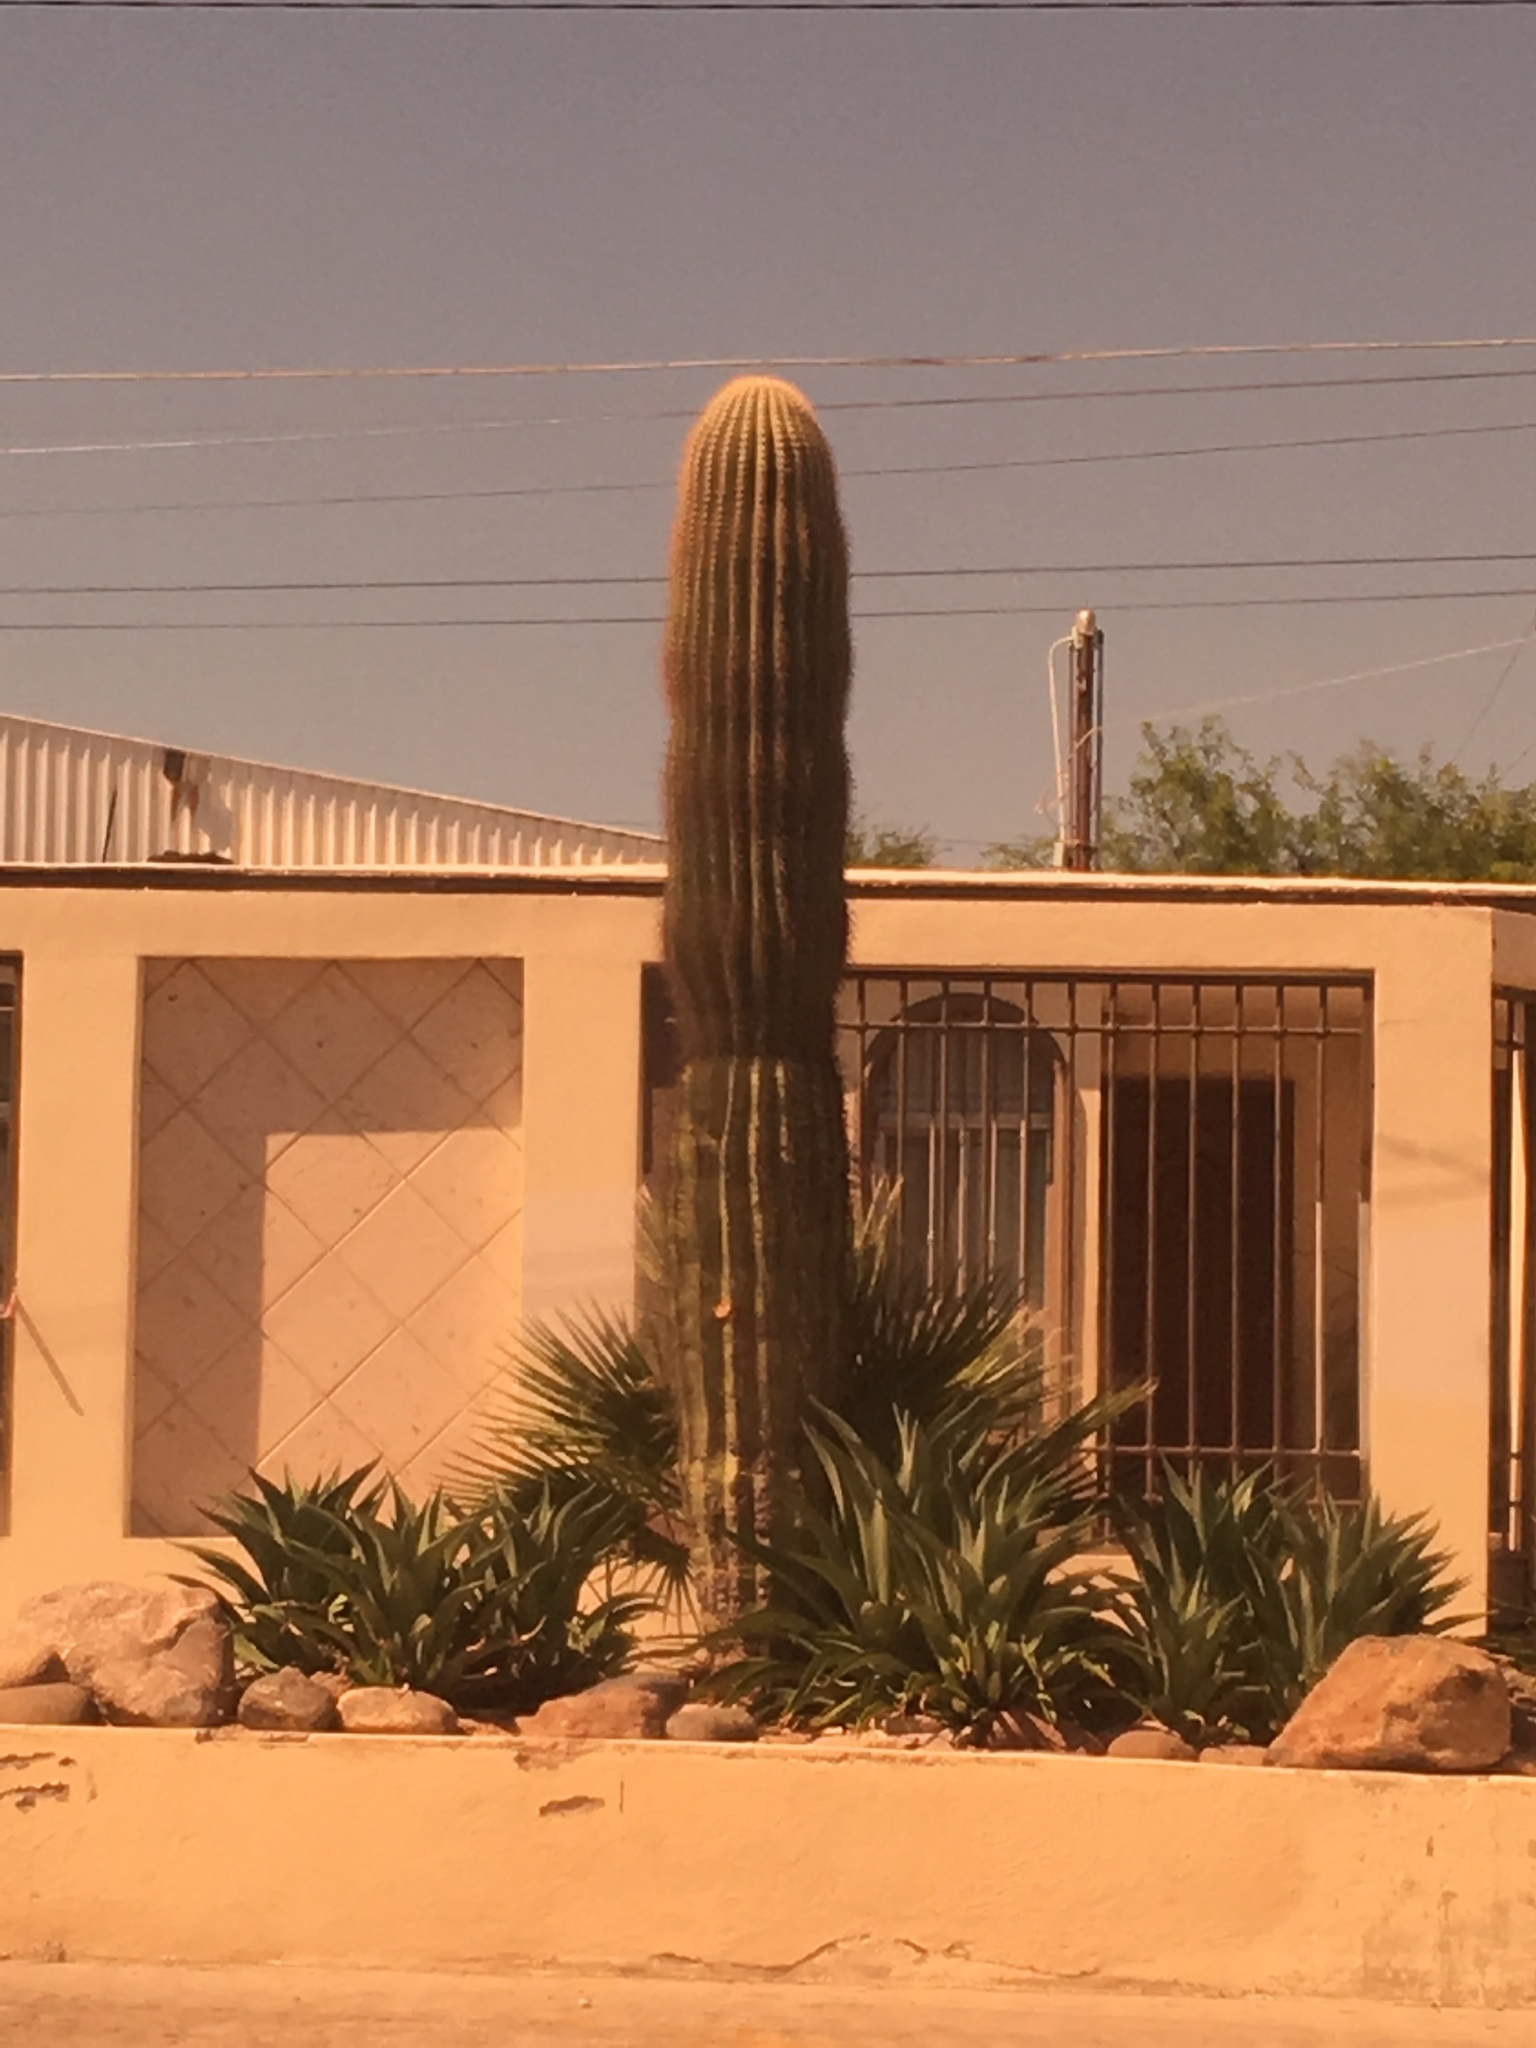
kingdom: Plantae
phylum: Tracheophyta
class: Magnoliopsida
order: Caryophyllales
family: Cactaceae
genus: Carnegiea
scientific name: Carnegiea gigantea
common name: Saguaro
